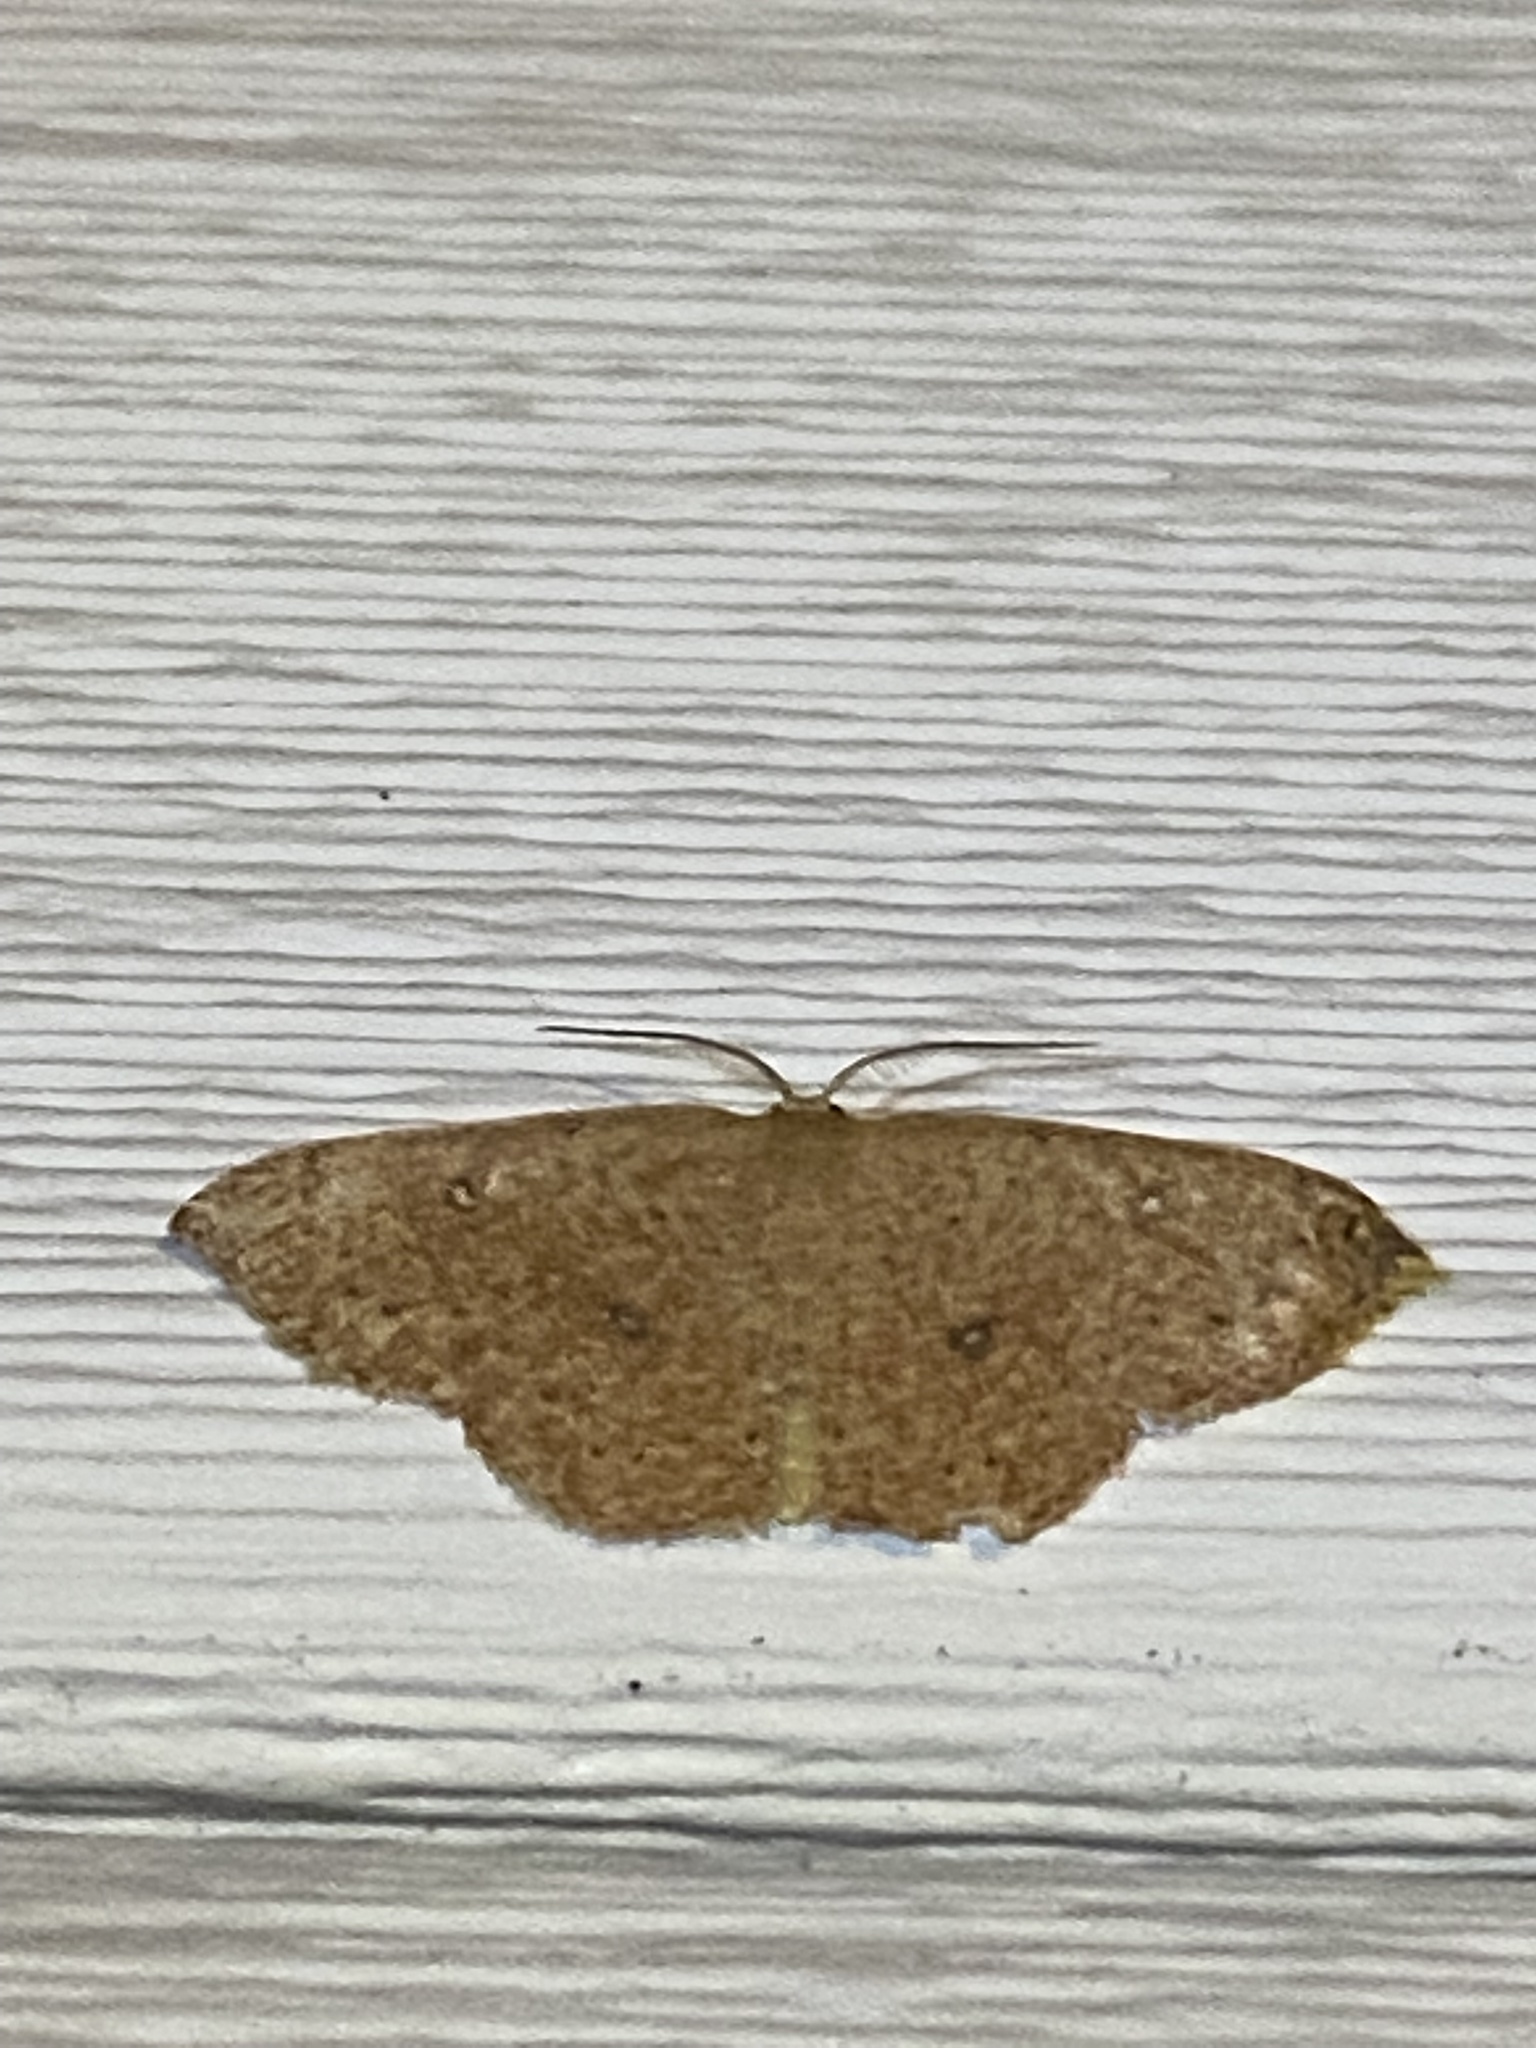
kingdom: Animalia
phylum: Arthropoda
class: Insecta
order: Lepidoptera
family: Geometridae
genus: Cyclophora
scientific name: Cyclophora packardi
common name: Packard's wave
